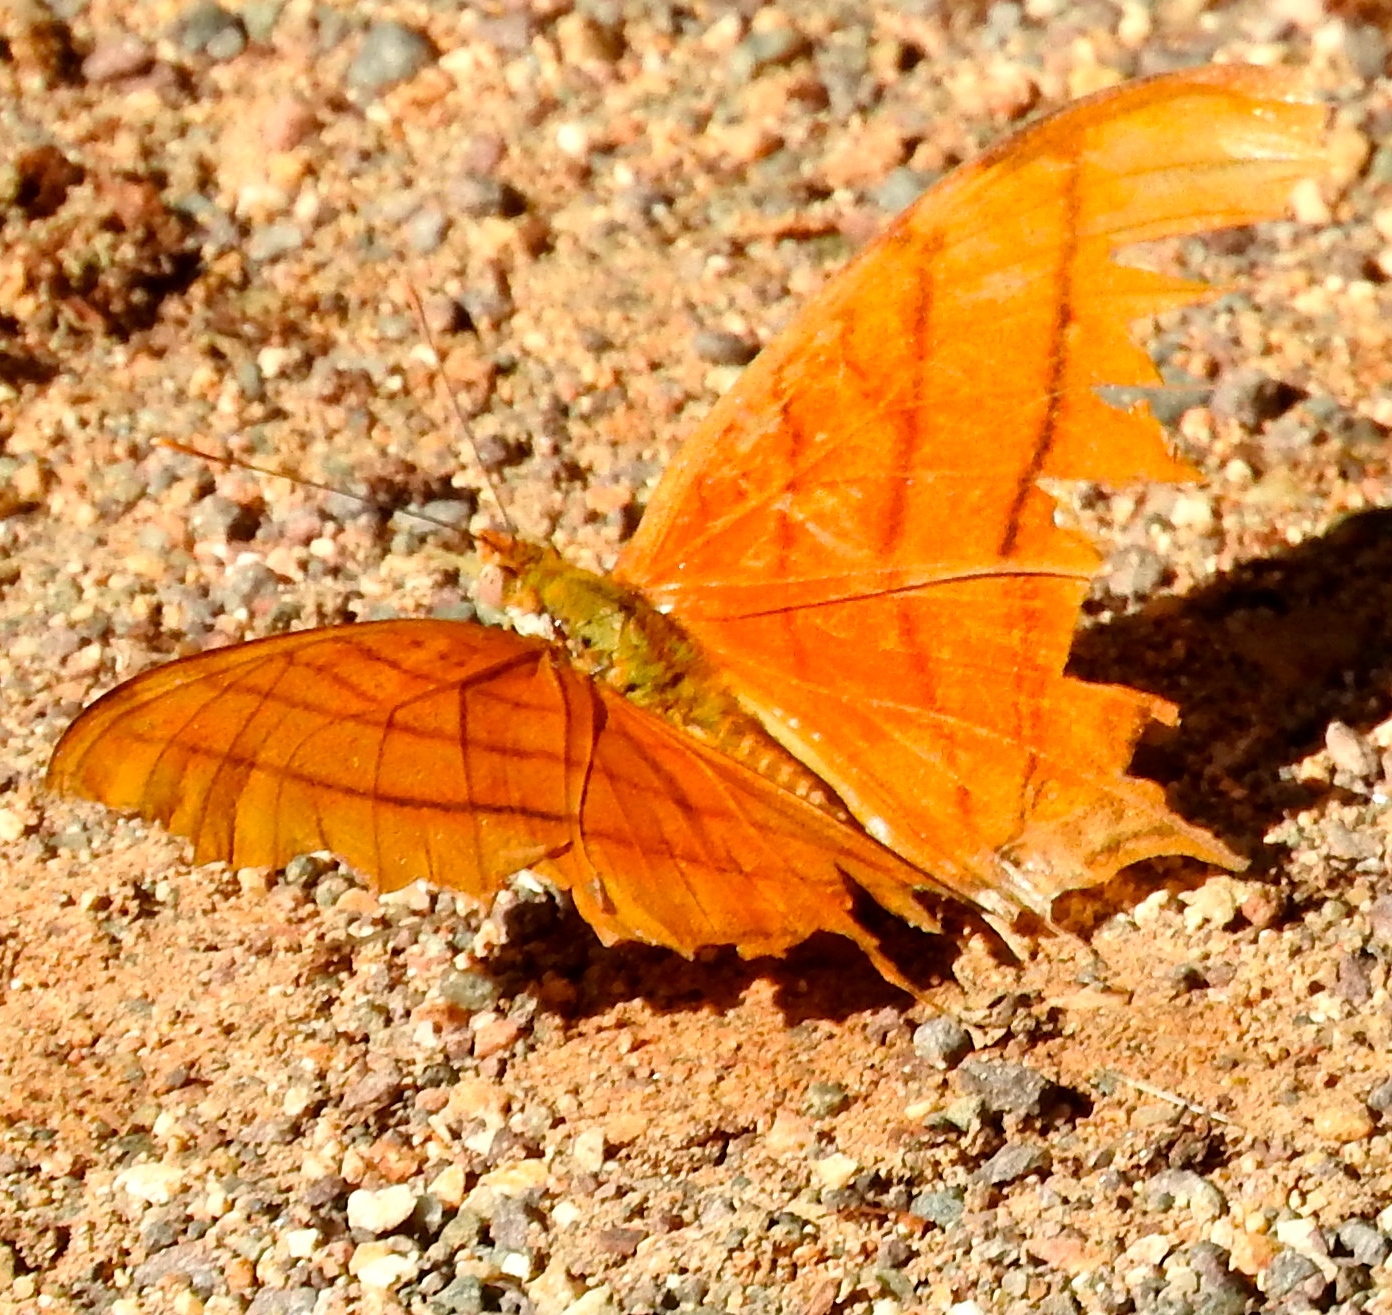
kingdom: Animalia
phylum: Arthropoda
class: Insecta
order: Lepidoptera
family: Nymphalidae
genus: Marpesia
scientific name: Marpesia petreus
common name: Red dagger wing
